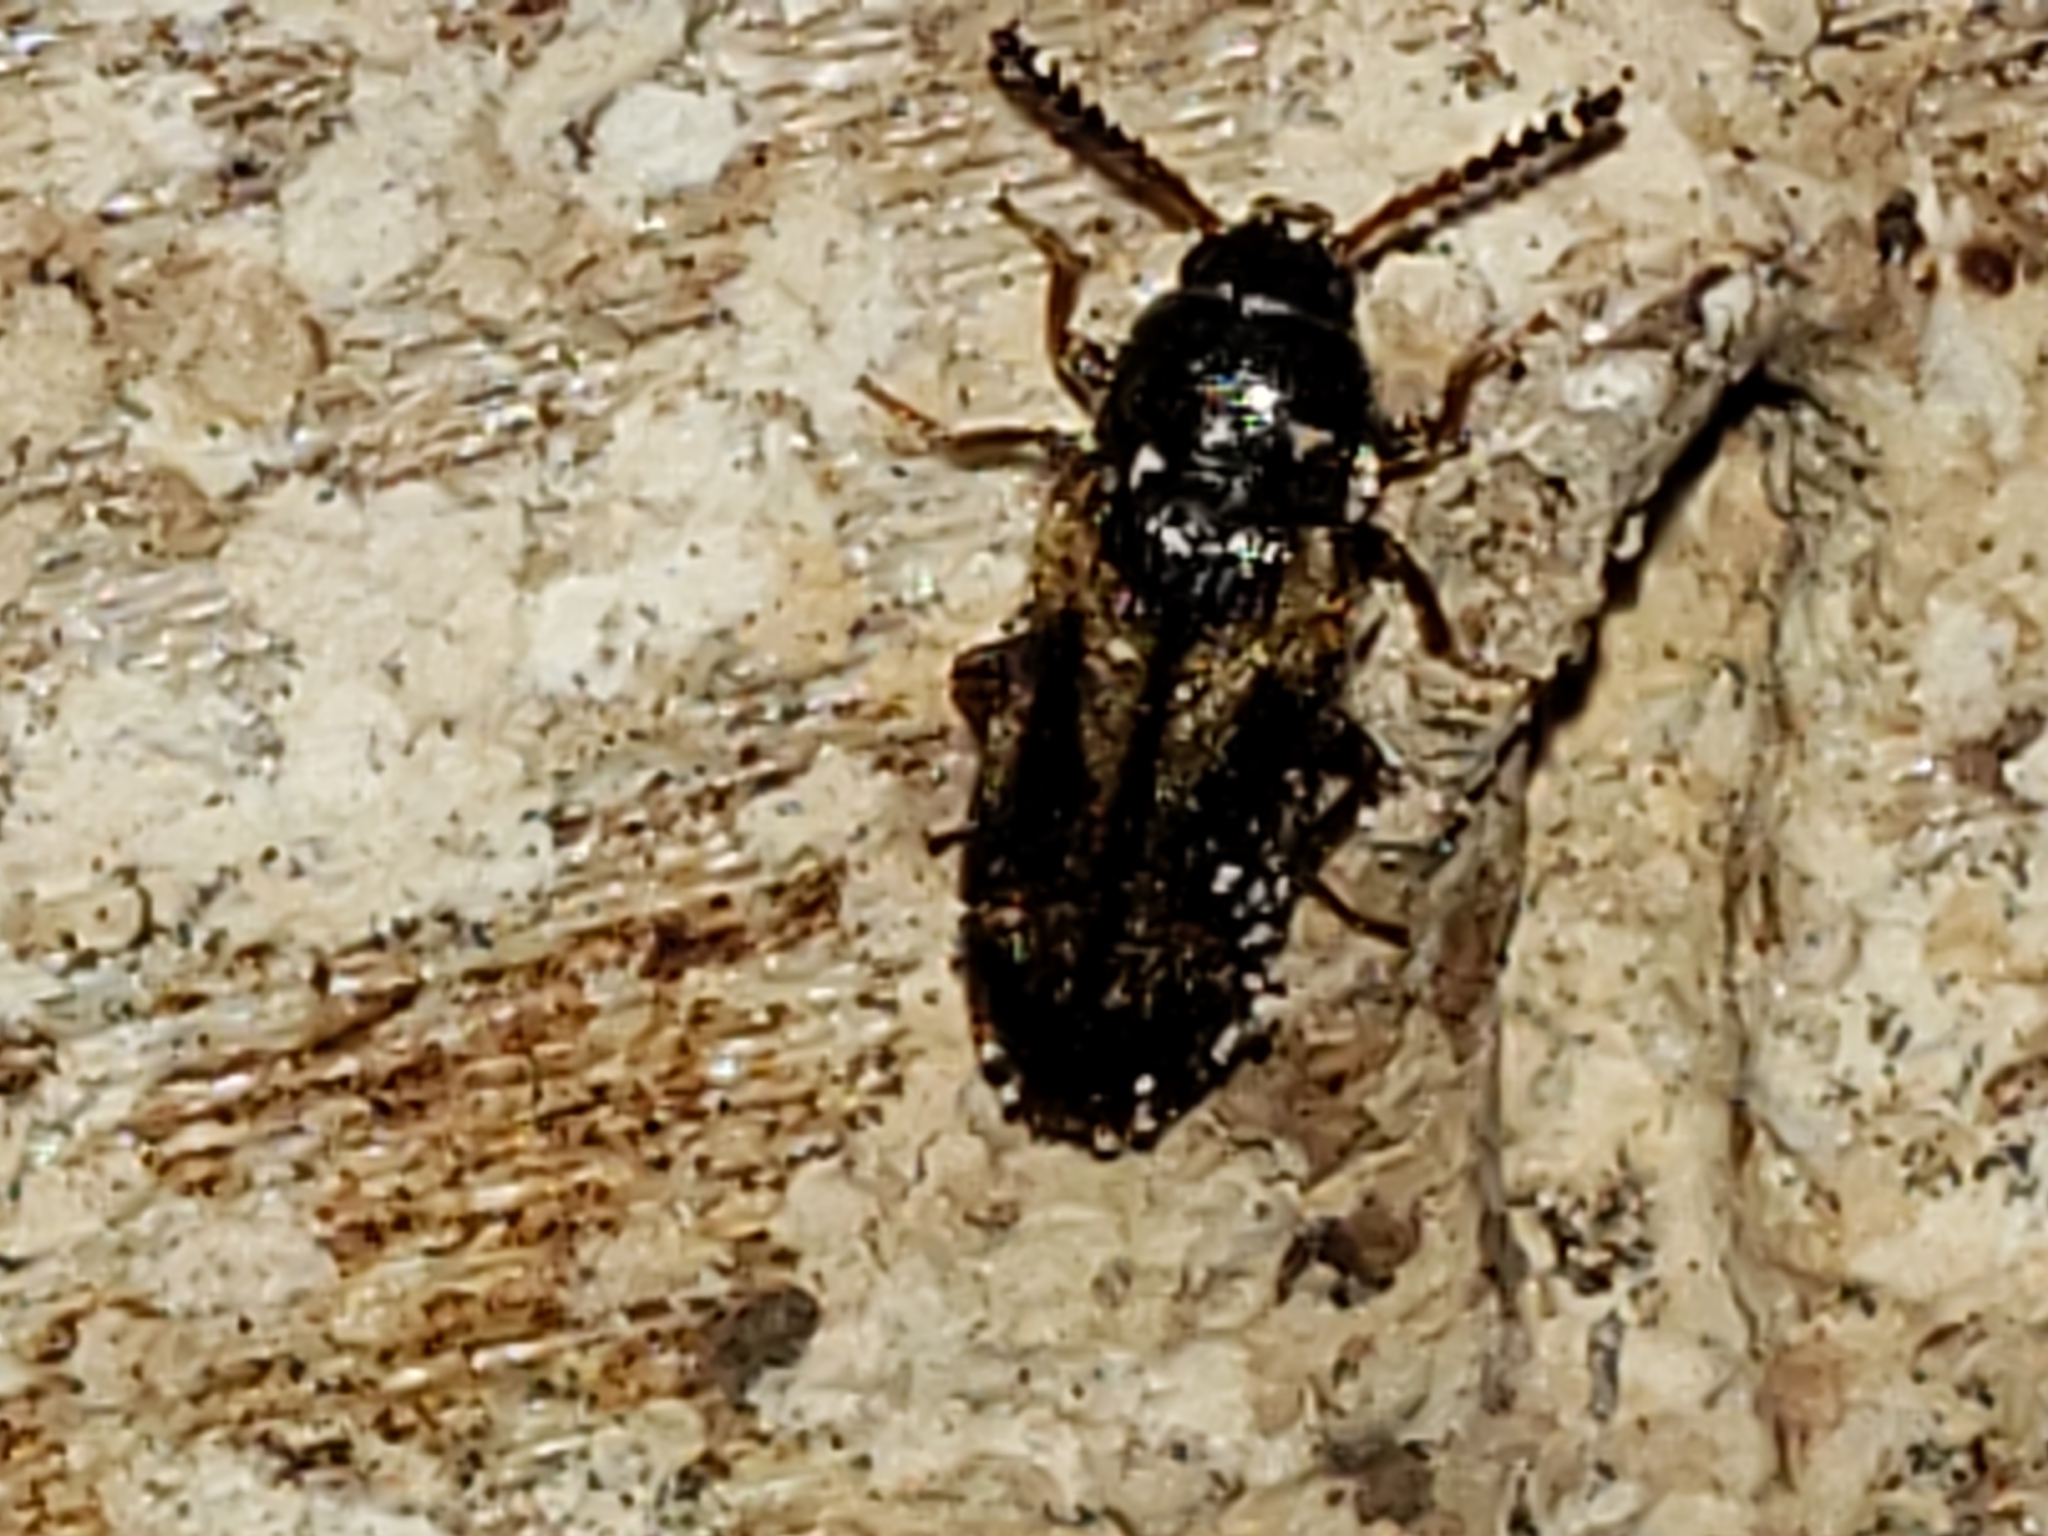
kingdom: Animalia
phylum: Arthropoda
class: Insecta
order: Coleoptera
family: Mycetophagidae
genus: Mycetophagus
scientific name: Mycetophagus melsheimeri
